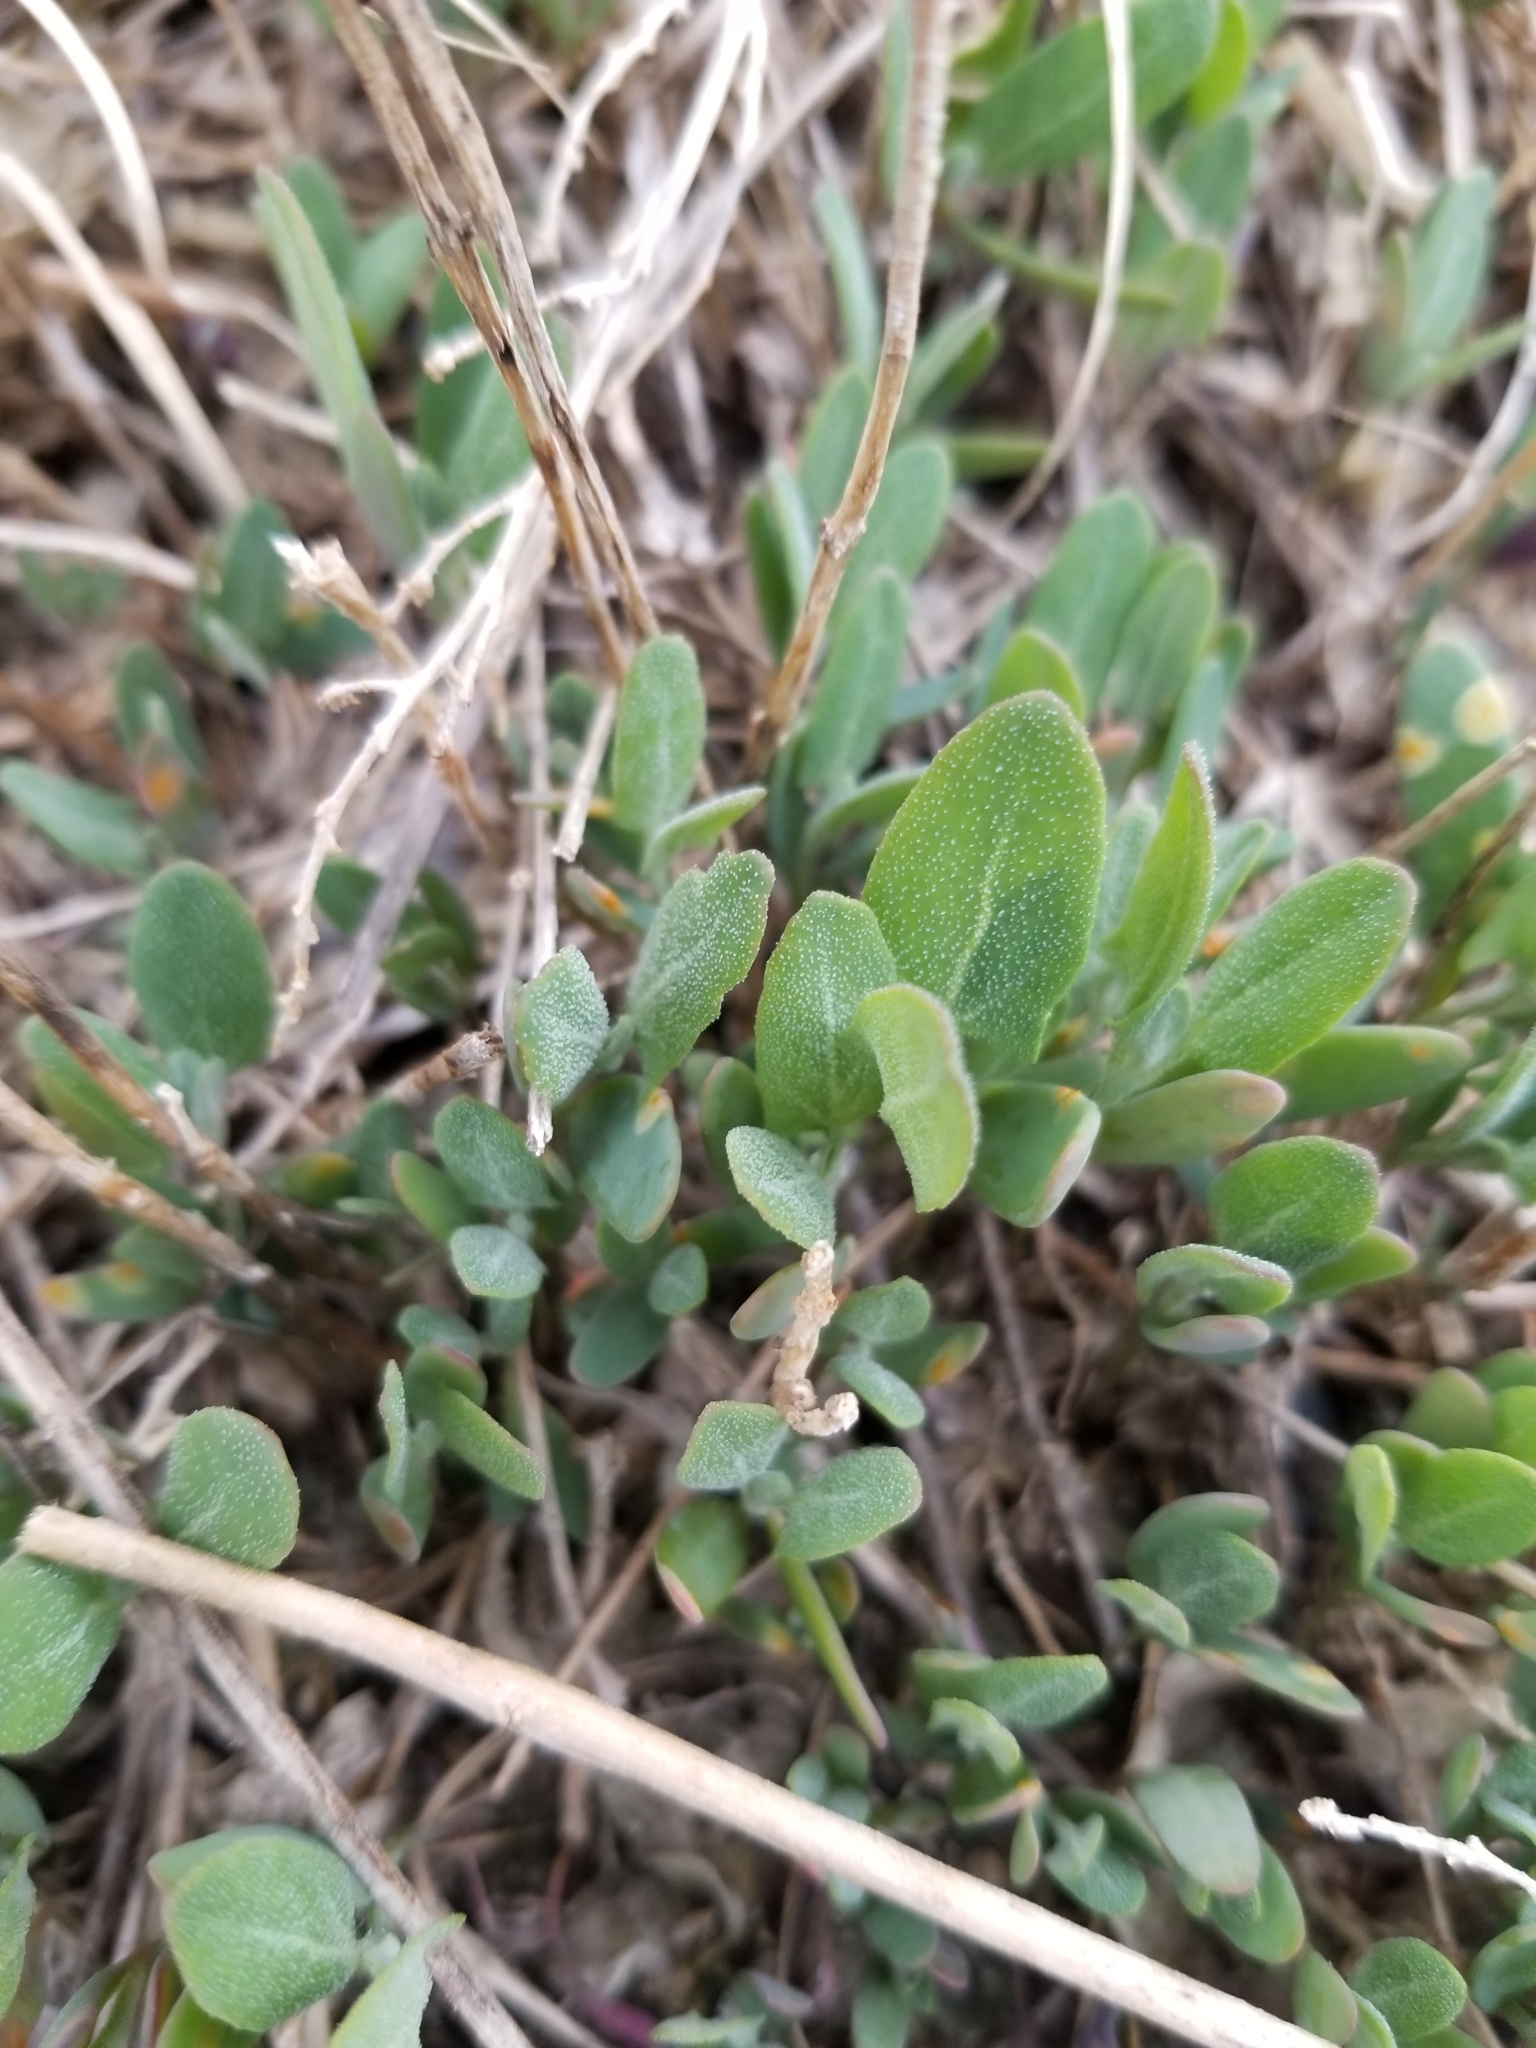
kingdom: Plantae
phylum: Tracheophyta
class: Magnoliopsida
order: Caryophyllales
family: Amaranthaceae
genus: Chenopodium
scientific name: Chenopodium album
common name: Fat-hen
